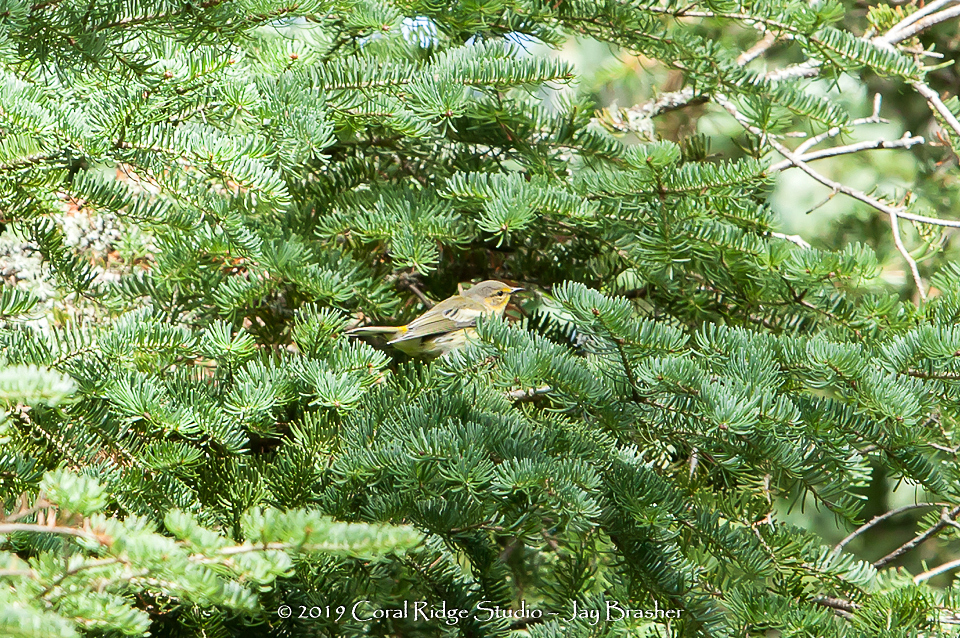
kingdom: Animalia
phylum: Chordata
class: Aves
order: Passeriformes
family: Parulidae
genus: Setophaga
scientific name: Setophaga tigrina
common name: Cape may warbler
